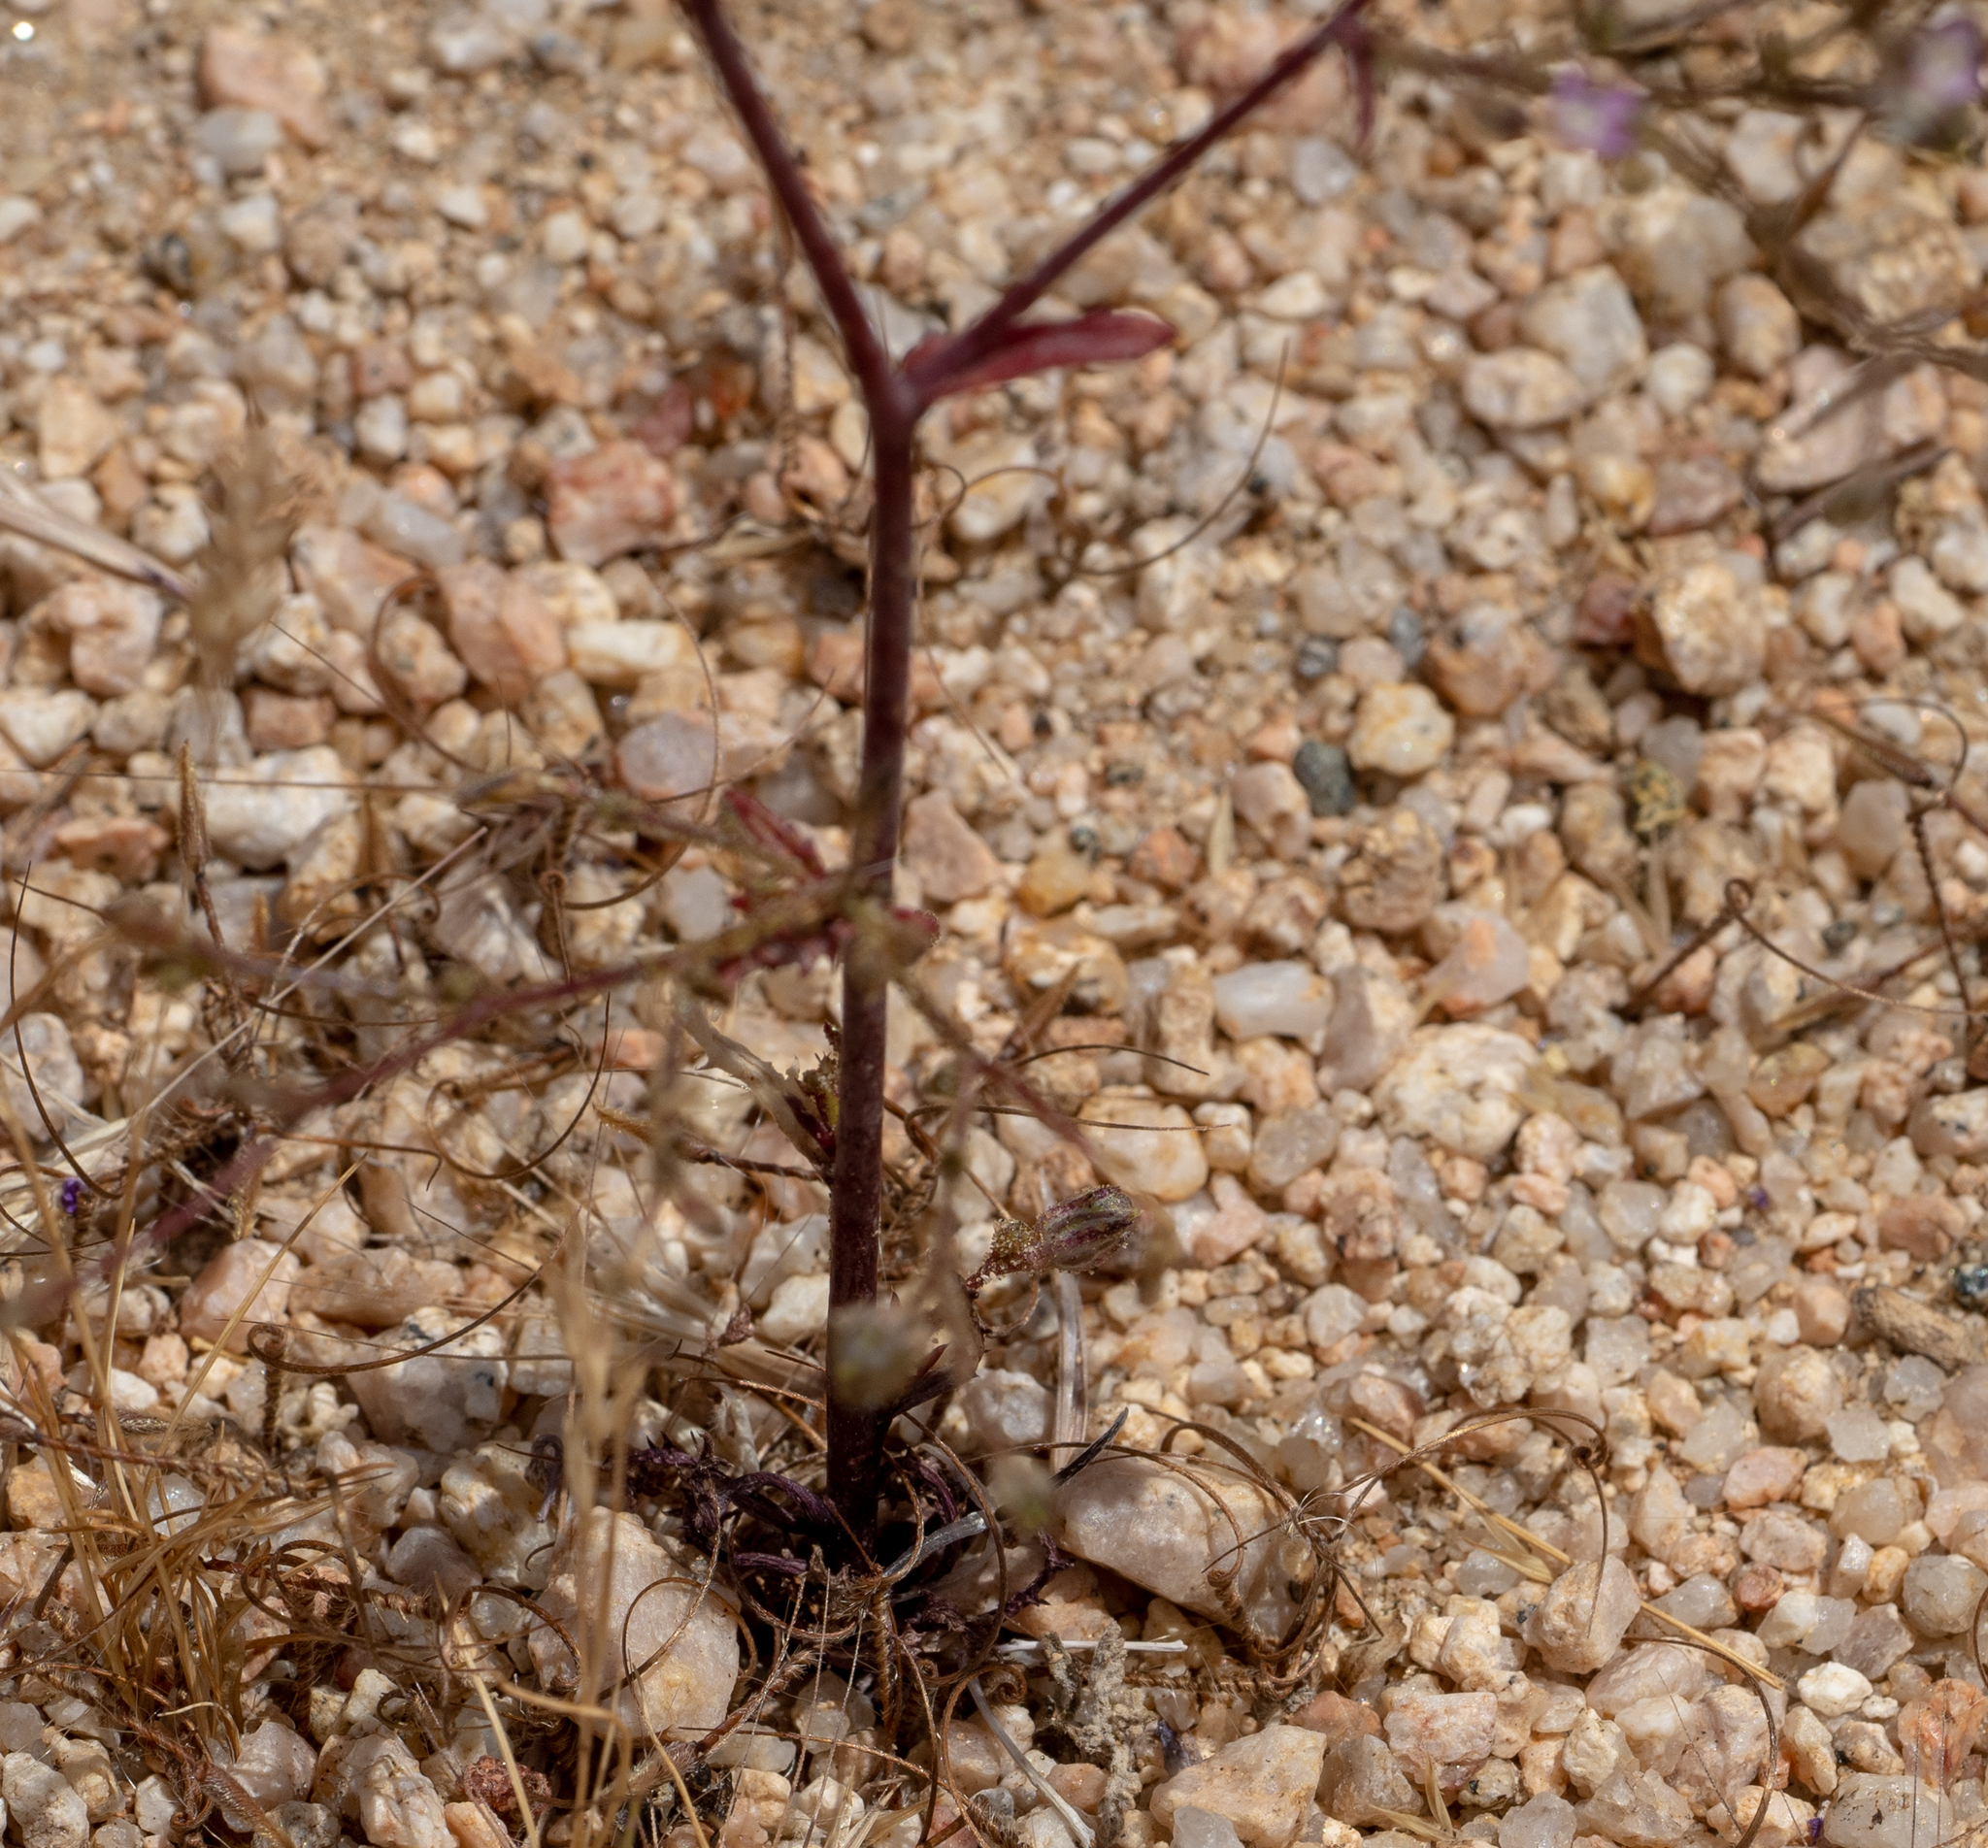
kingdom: Plantae
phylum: Tracheophyta
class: Magnoliopsida
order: Ericales
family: Polemoniaceae
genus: Gilia
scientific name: Gilia sinuata
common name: Rosy gilia
